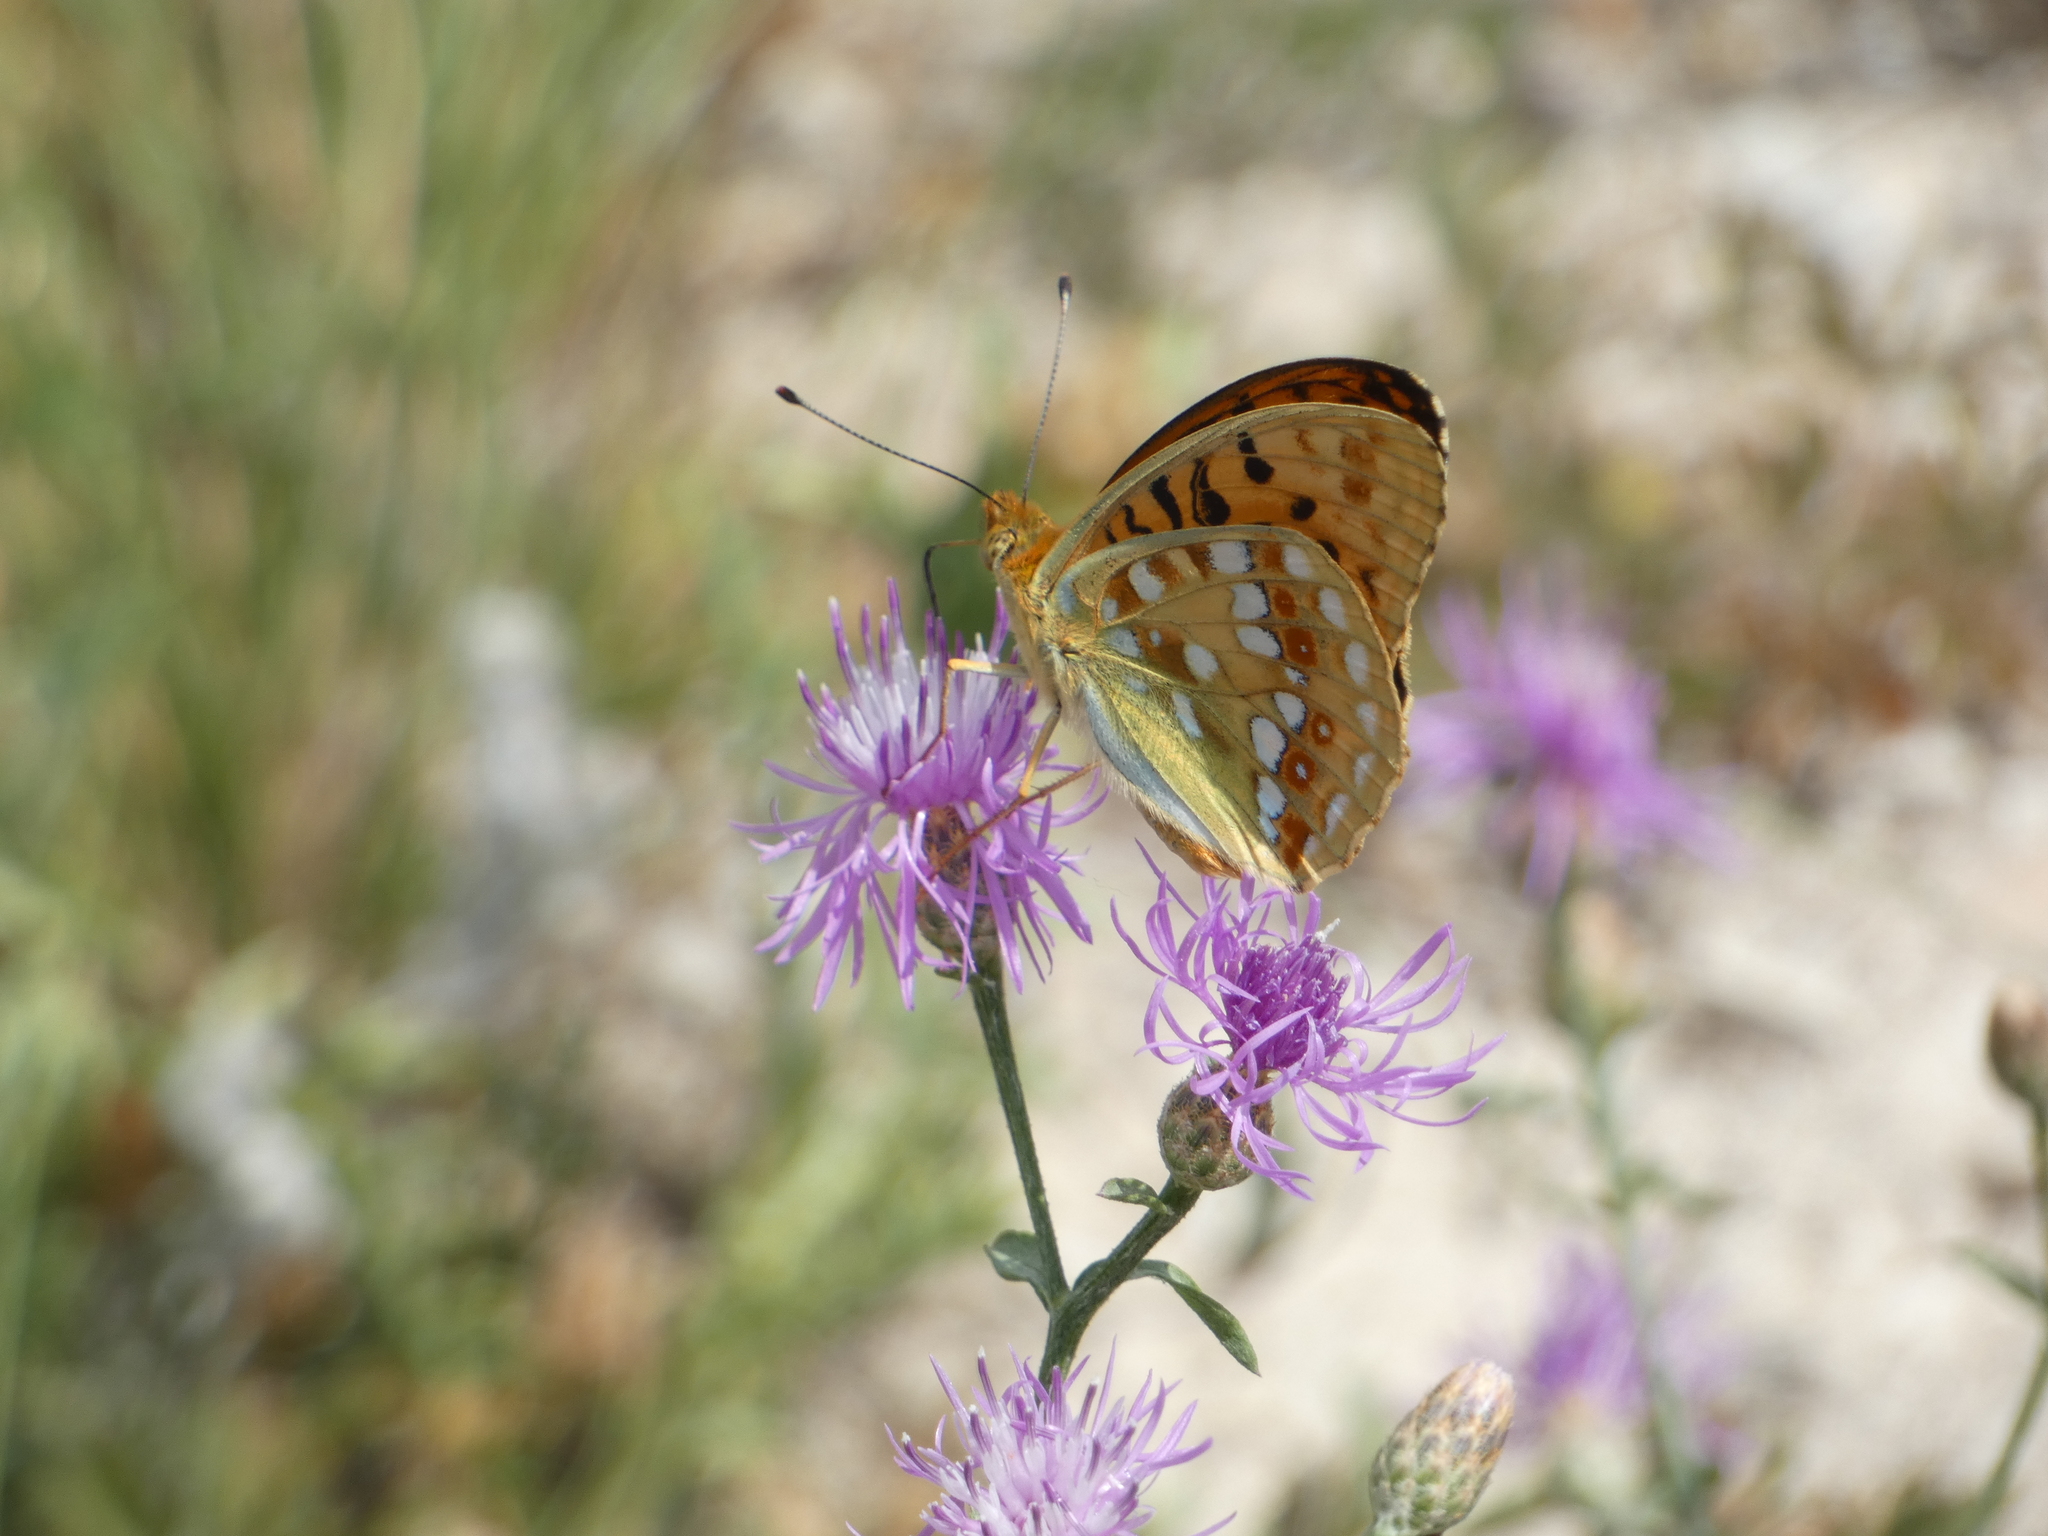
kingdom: Animalia
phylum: Arthropoda
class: Insecta
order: Lepidoptera
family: Nymphalidae
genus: Fabriciana
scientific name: Fabriciana adippe
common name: High brown fritillary
